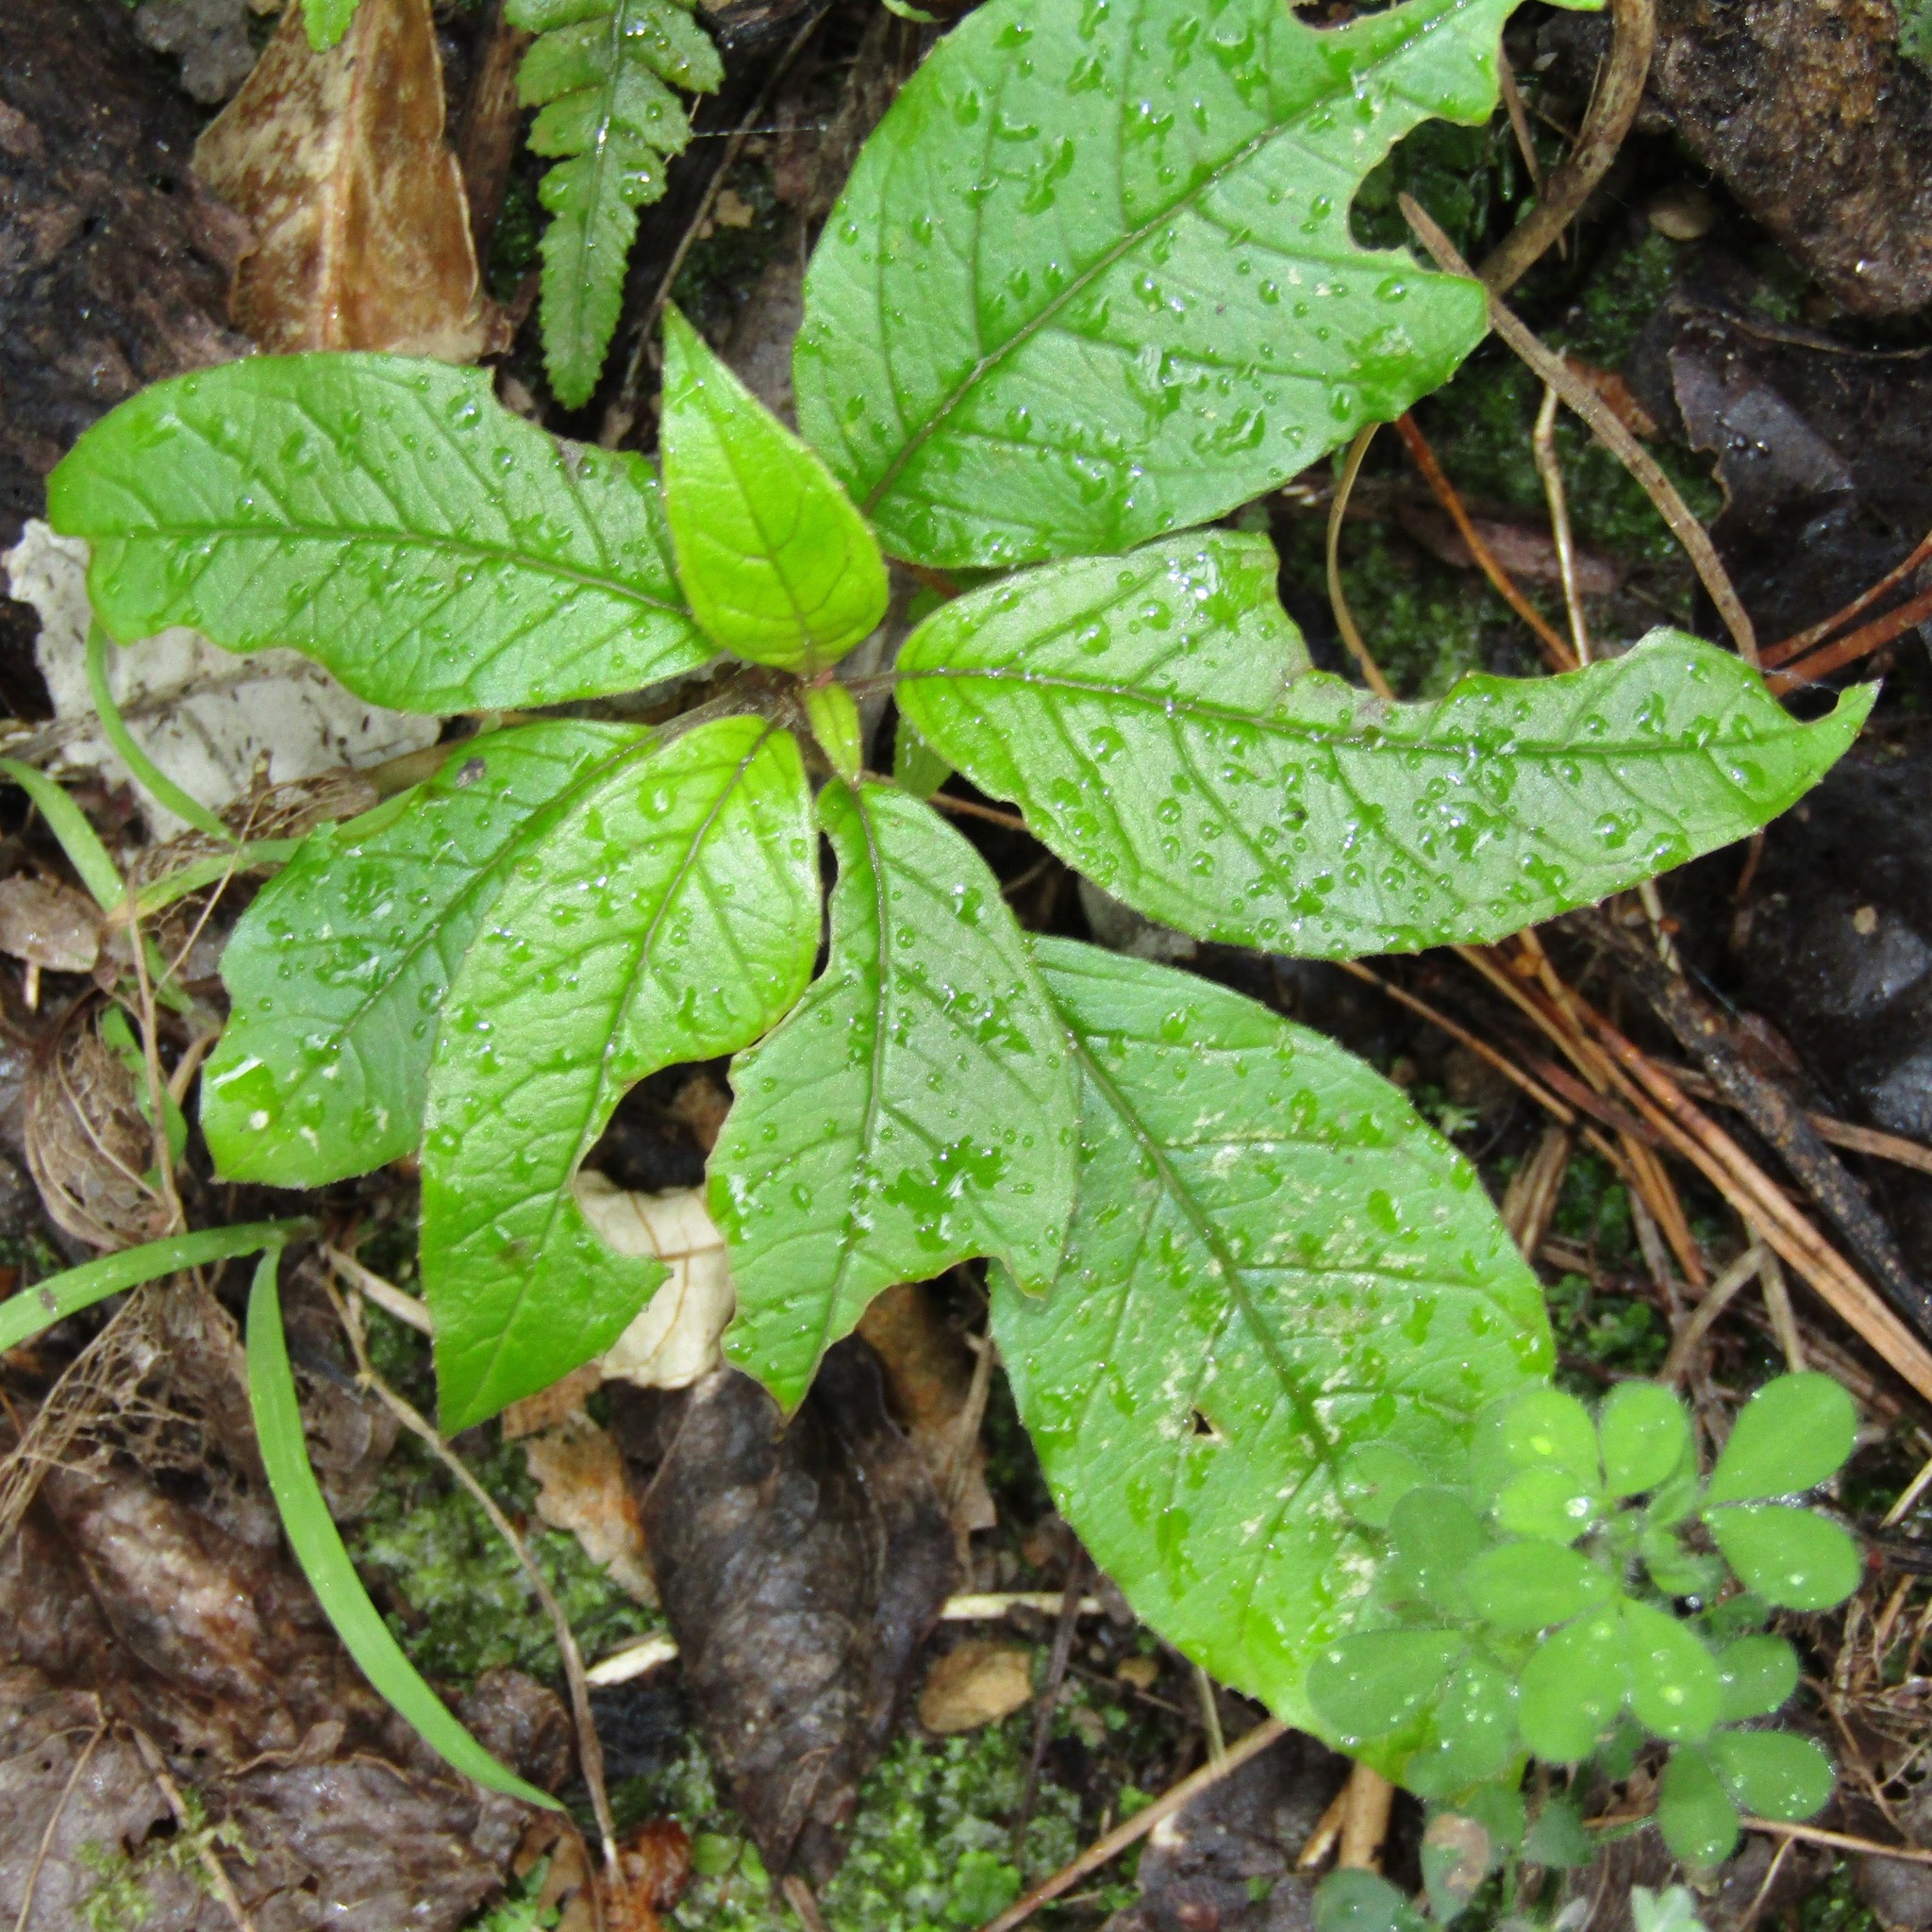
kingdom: Plantae
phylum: Tracheophyta
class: Magnoliopsida
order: Myrtales
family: Onagraceae
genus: Fuchsia
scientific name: Fuchsia excorticata
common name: Tree fuchsia
